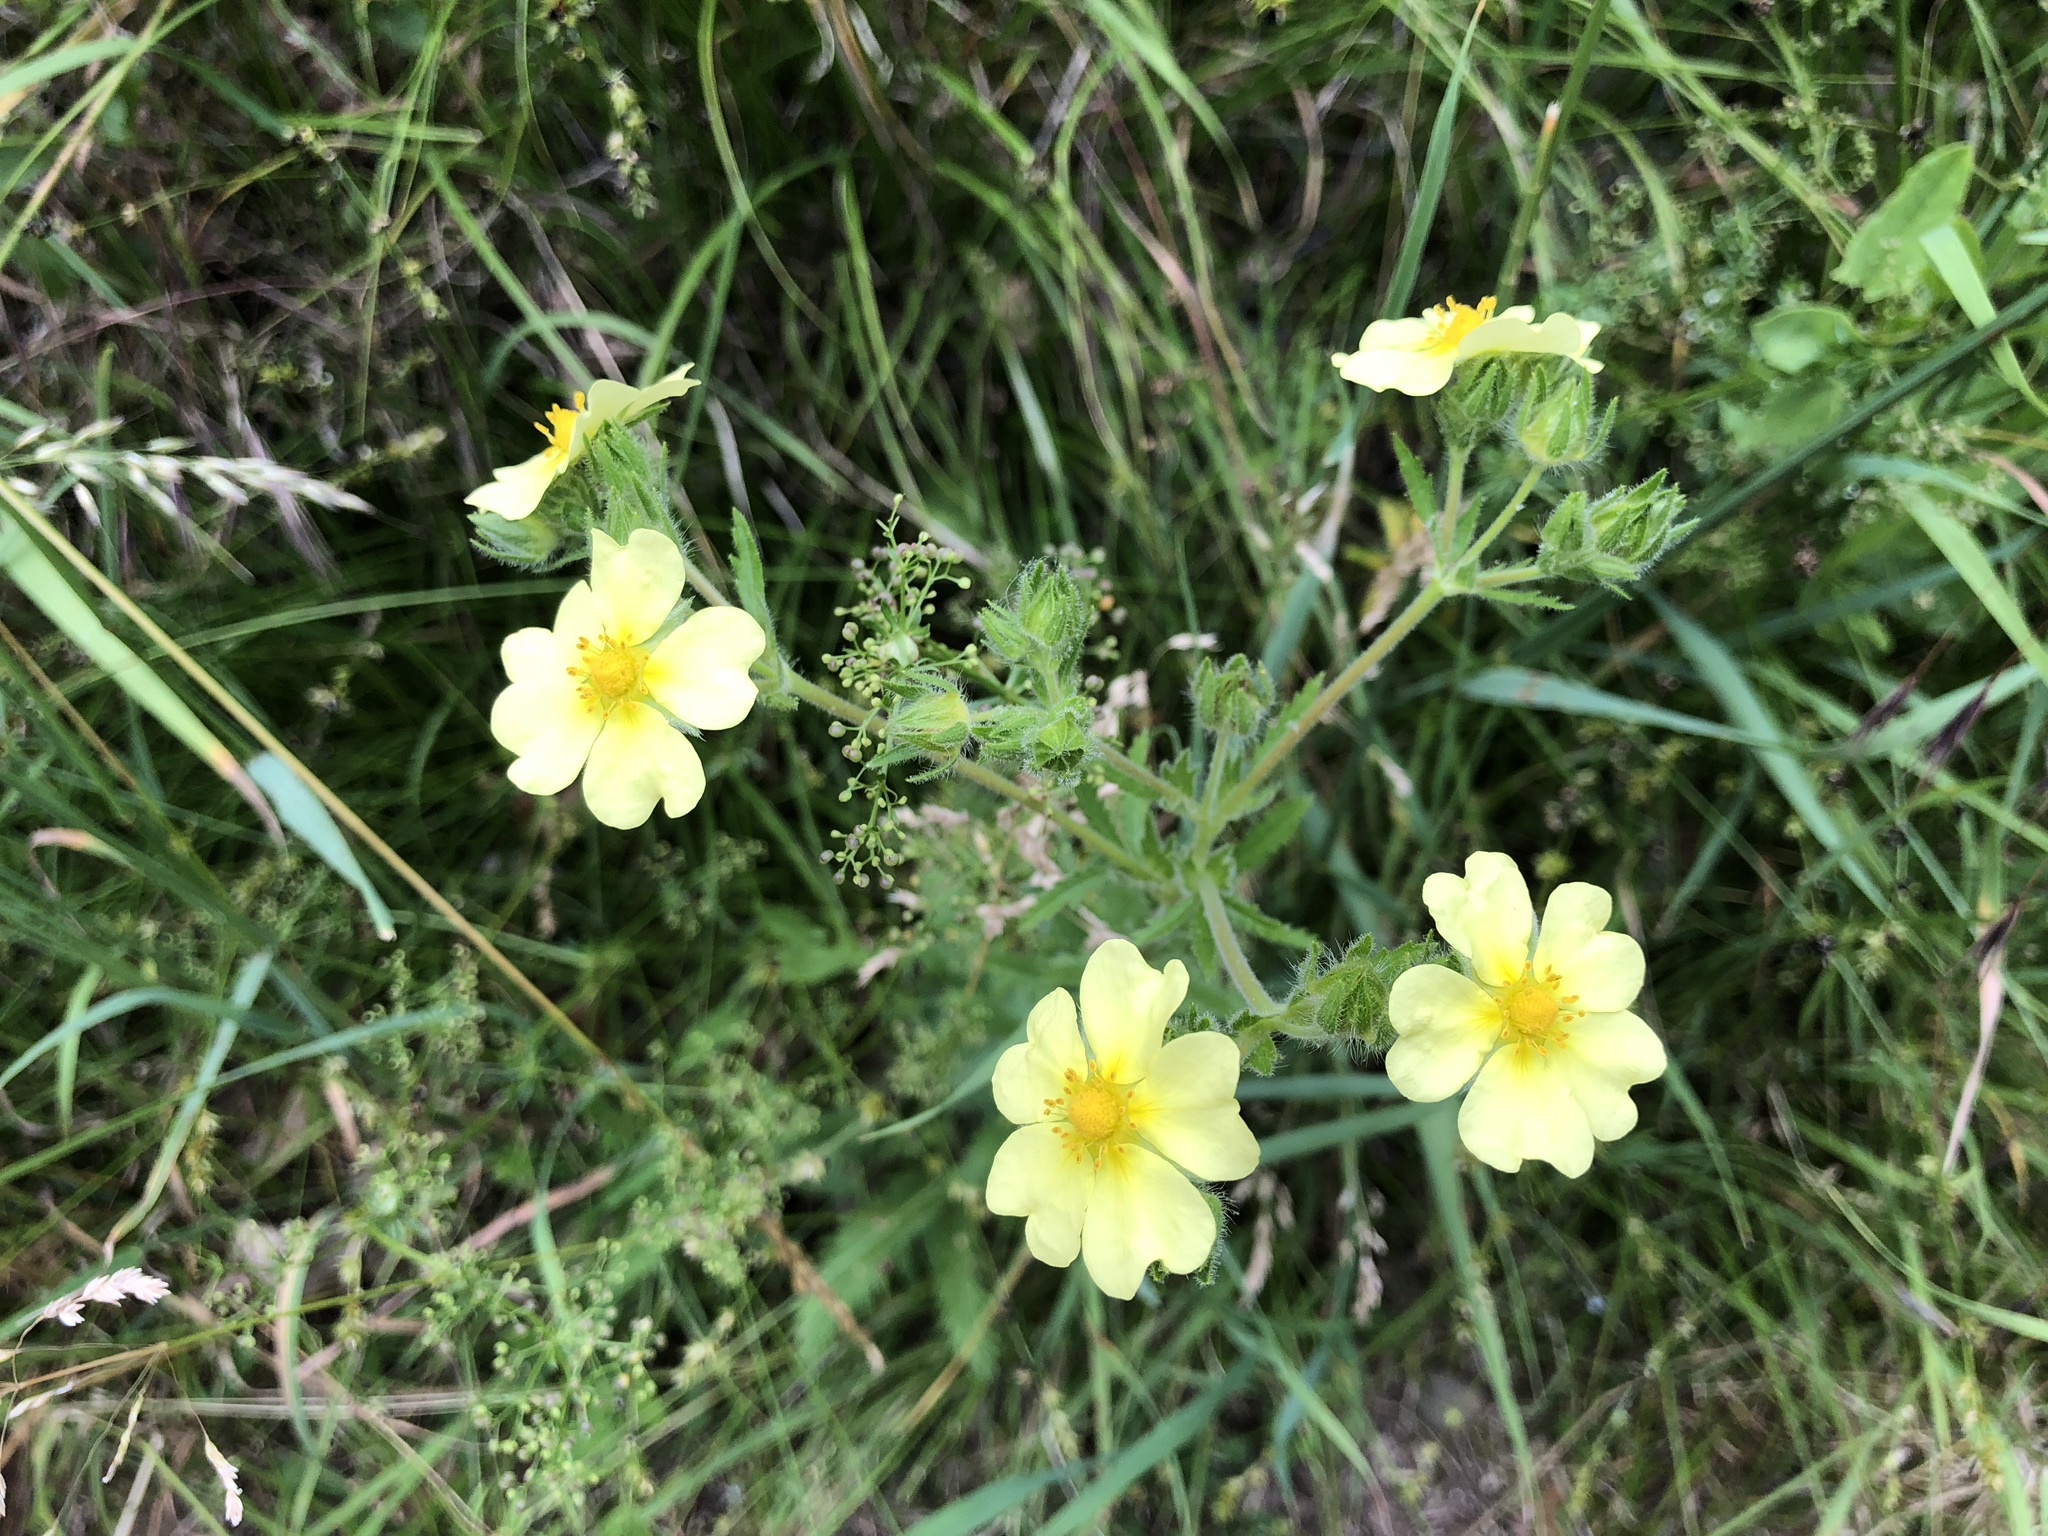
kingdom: Plantae
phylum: Tracheophyta
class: Magnoliopsida
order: Rosales
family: Rosaceae
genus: Potentilla
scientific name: Potentilla recta
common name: Sulphur cinquefoil
